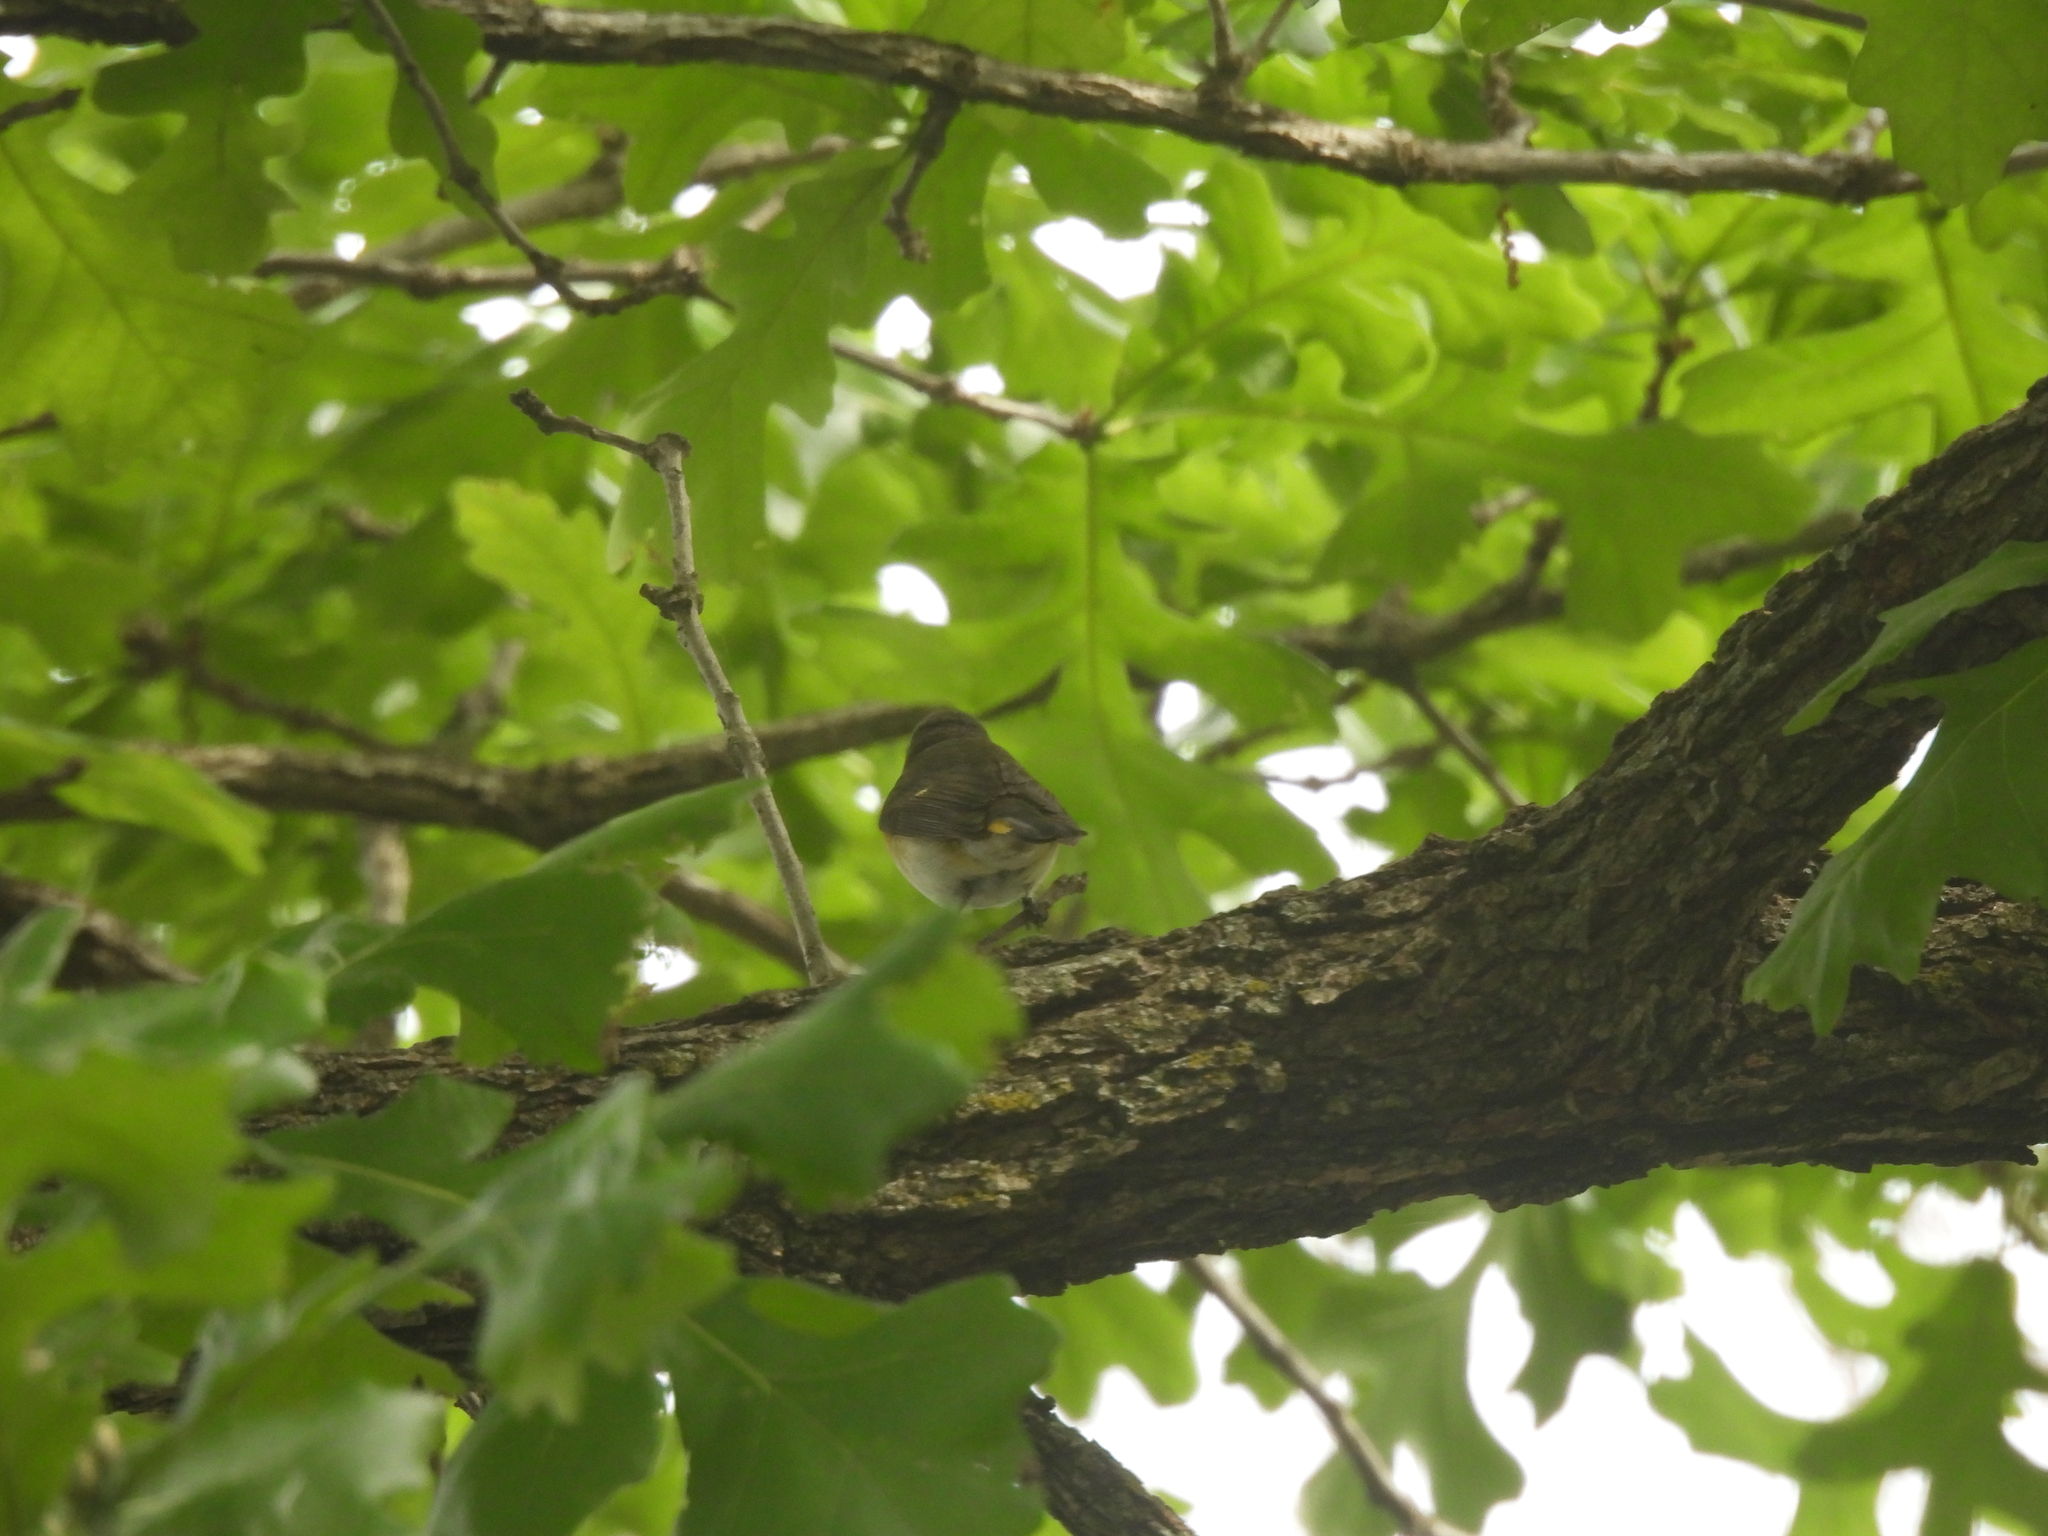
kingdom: Animalia
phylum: Chordata
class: Aves
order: Passeriformes
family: Parulidae
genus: Setophaga
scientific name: Setophaga ruticilla
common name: American redstart
